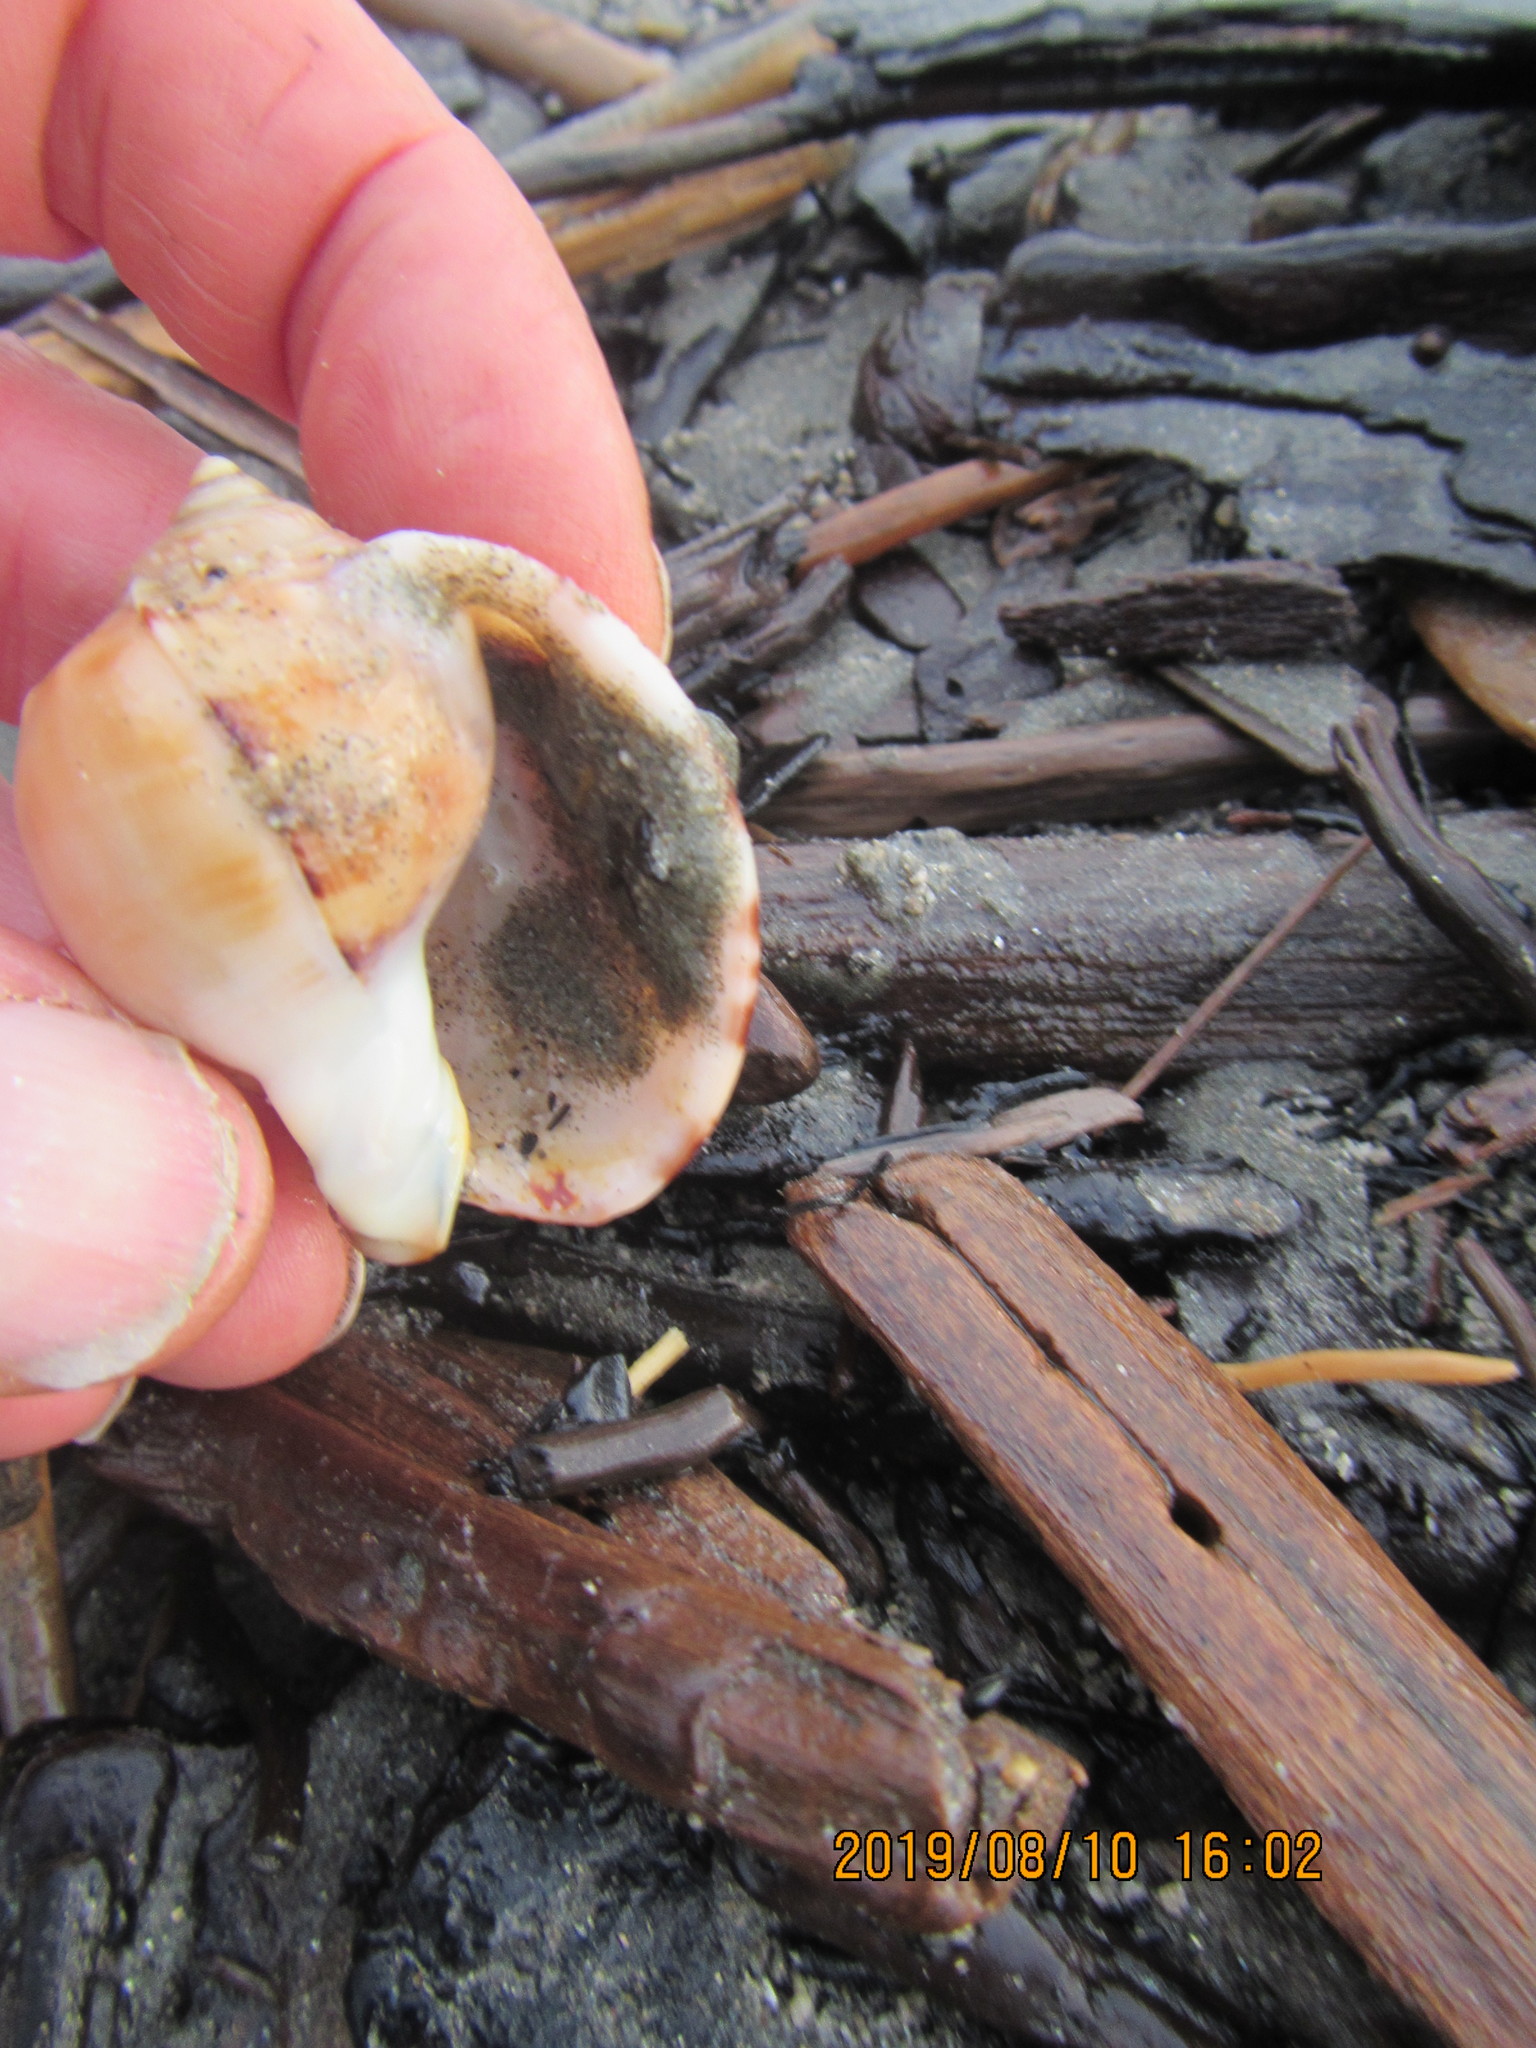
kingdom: Animalia
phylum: Mollusca
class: Gastropoda
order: Littorinimorpha
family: Cassidae
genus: Semicassis
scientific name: Semicassis pyrum
